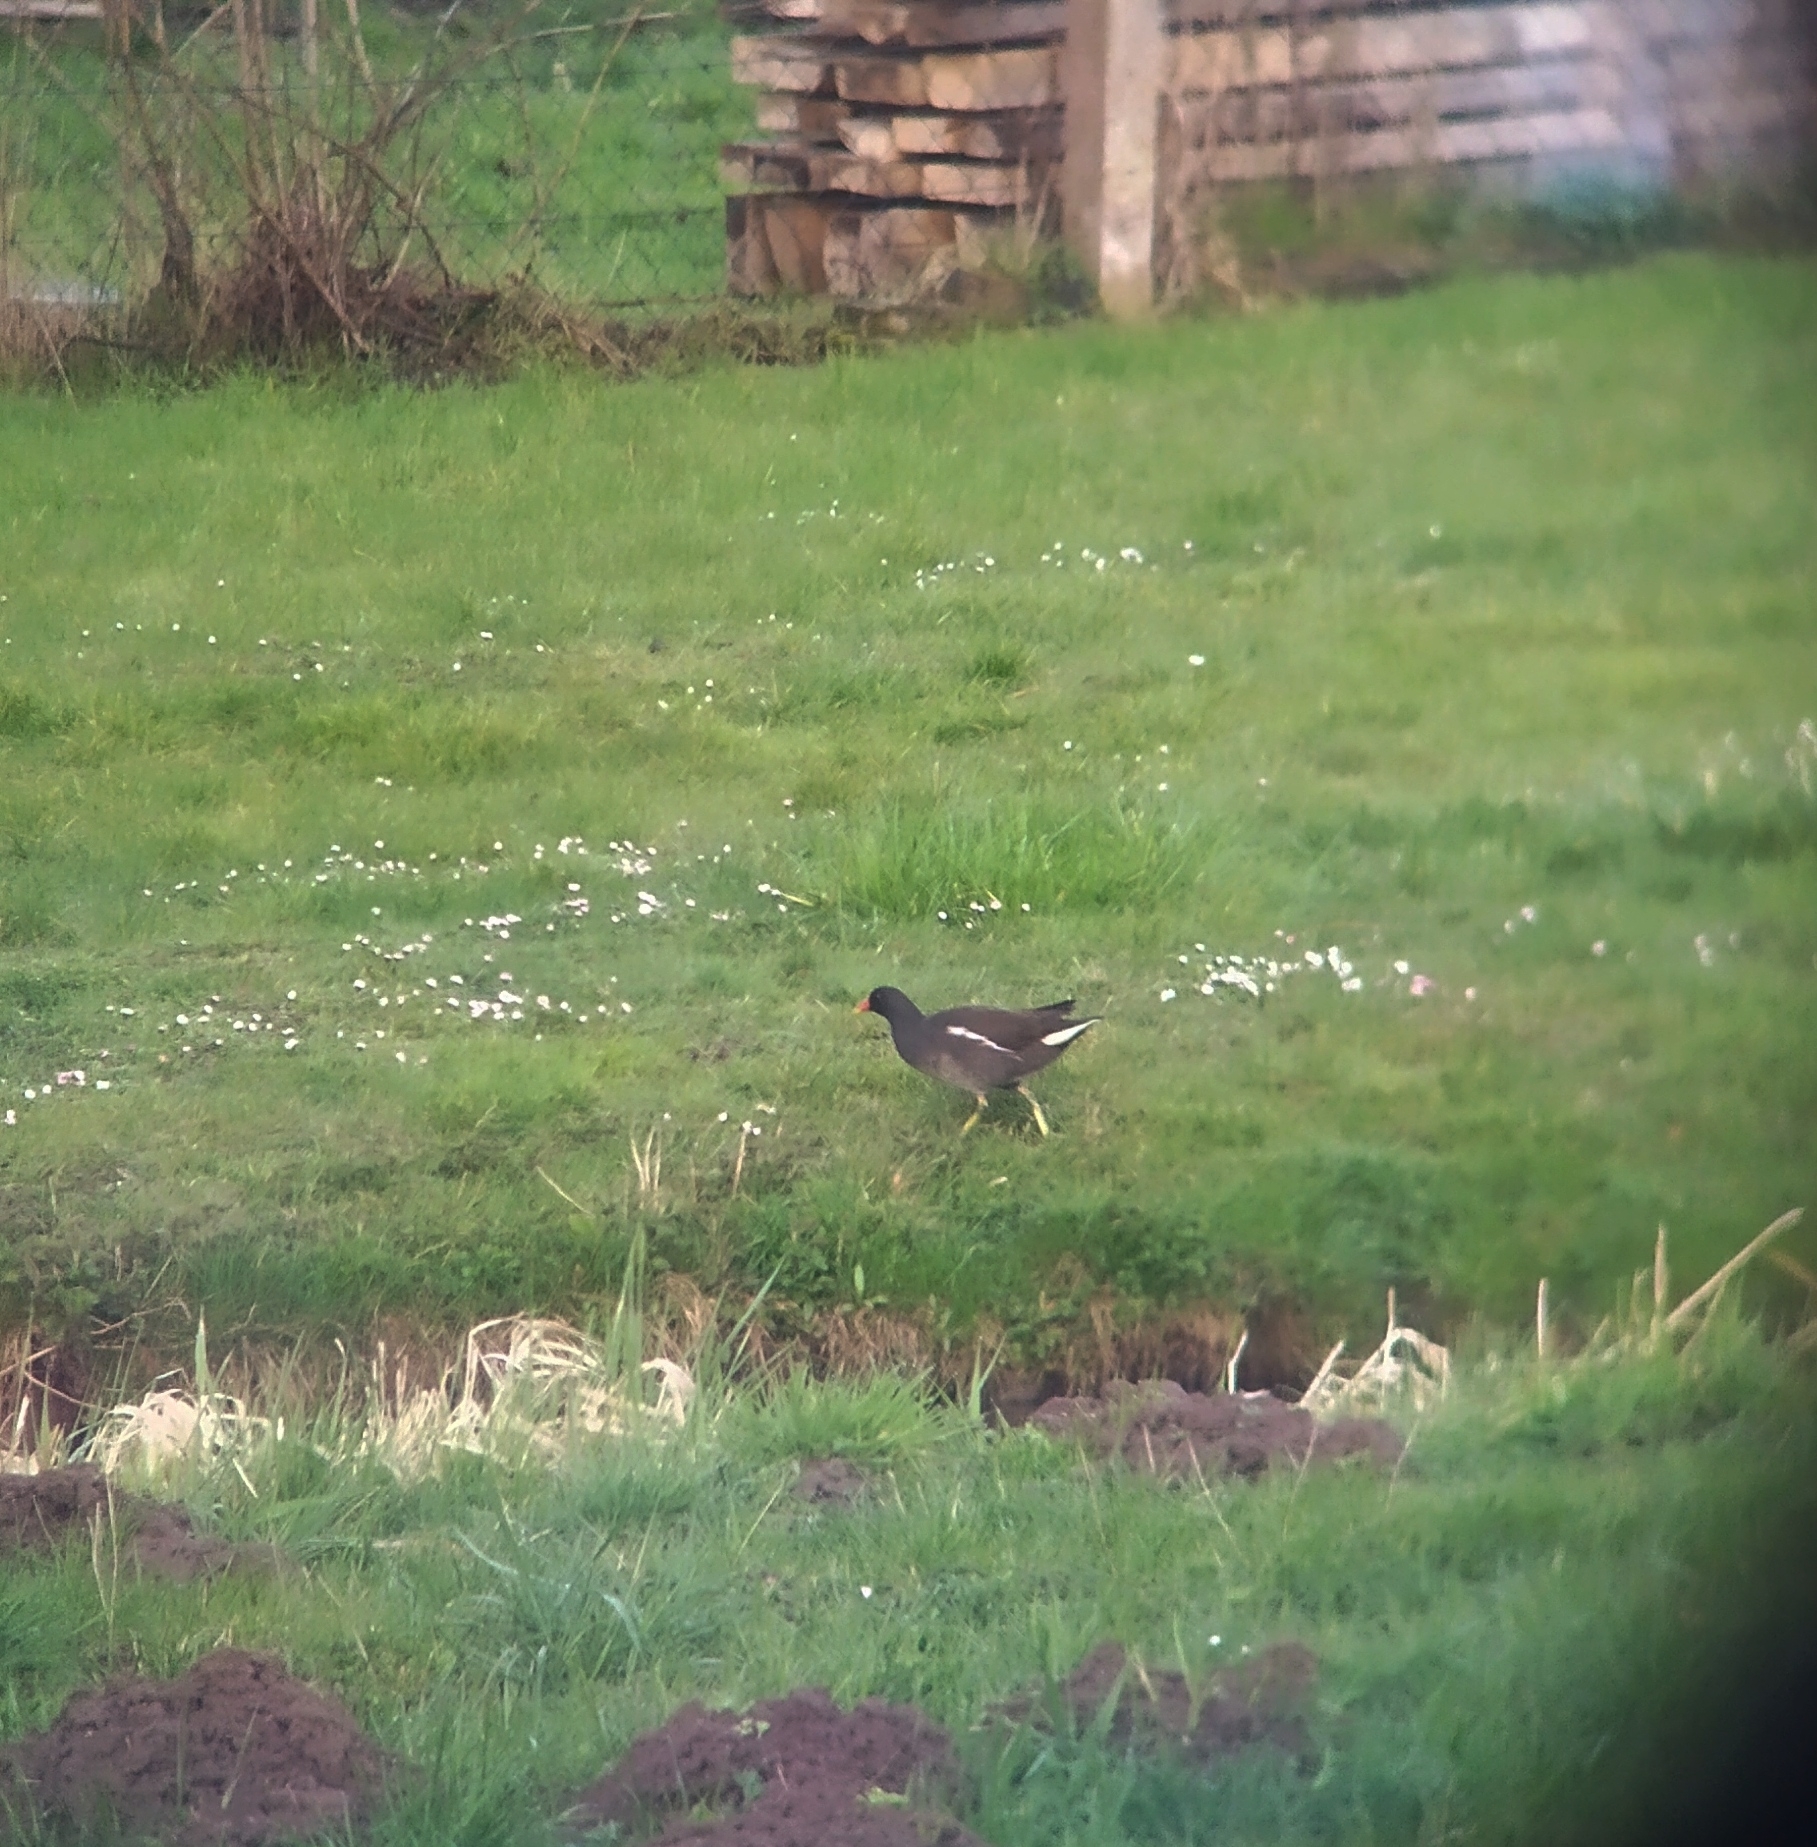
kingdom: Animalia
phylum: Chordata
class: Aves
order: Gruiformes
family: Rallidae
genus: Gallinula
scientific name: Gallinula chloropus
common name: Common moorhen
